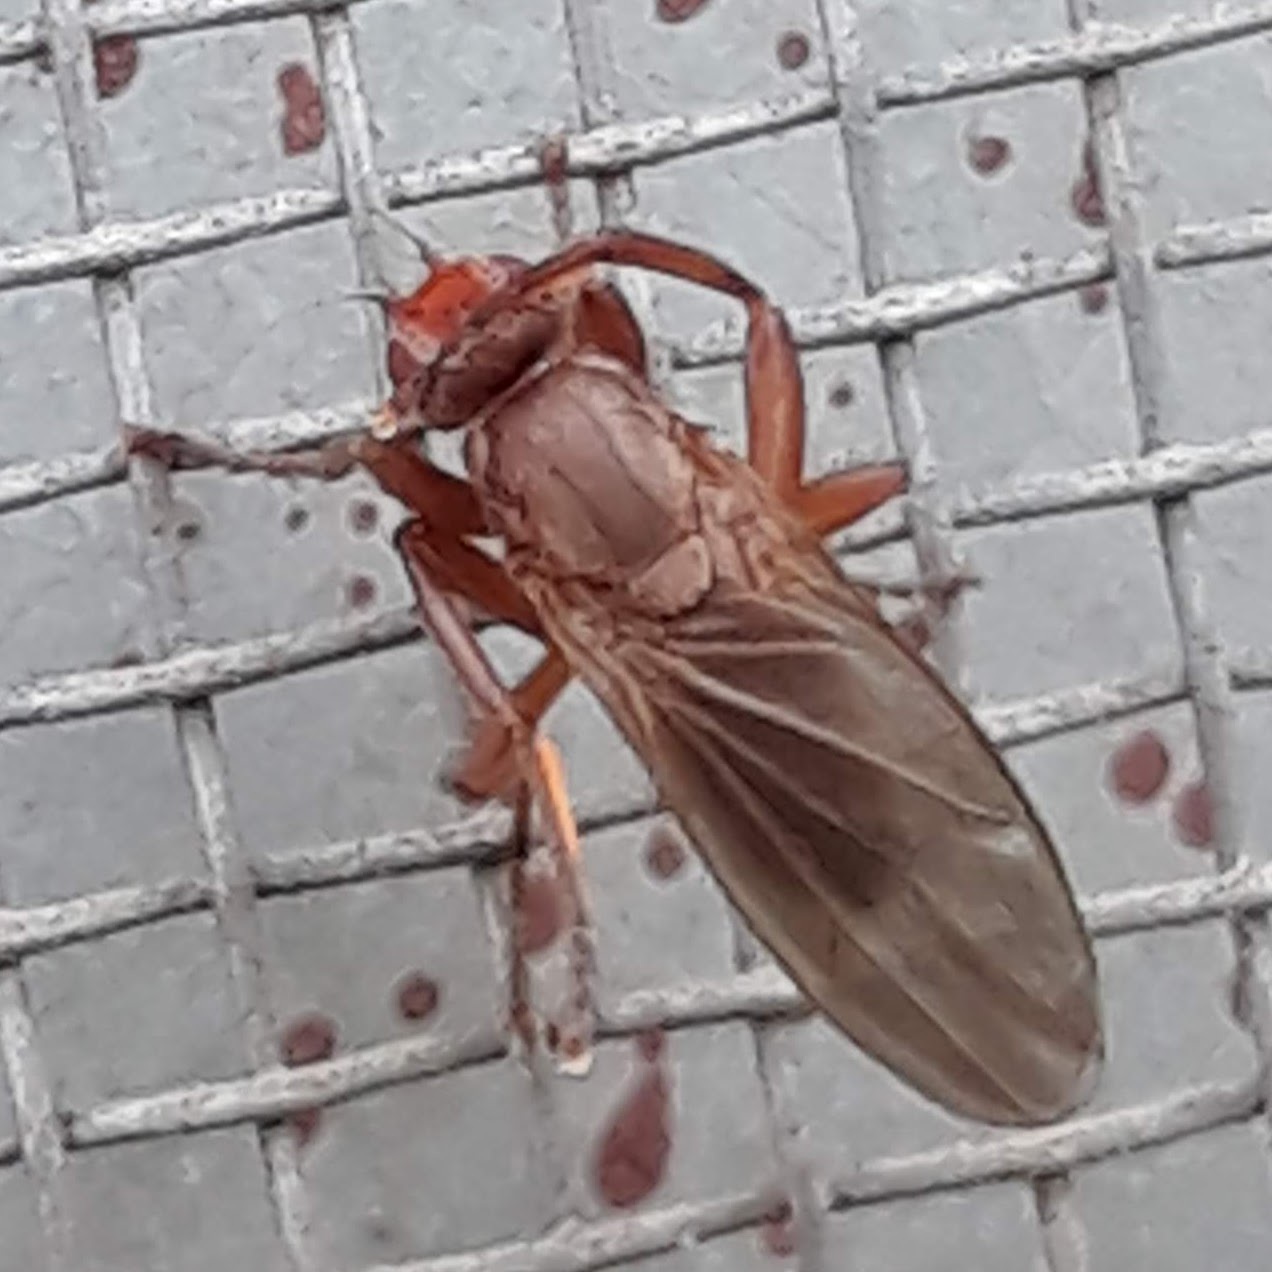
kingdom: Animalia
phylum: Arthropoda
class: Insecta
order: Diptera
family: Heleomyzidae
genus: Lutomyia
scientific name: Lutomyia spurca
